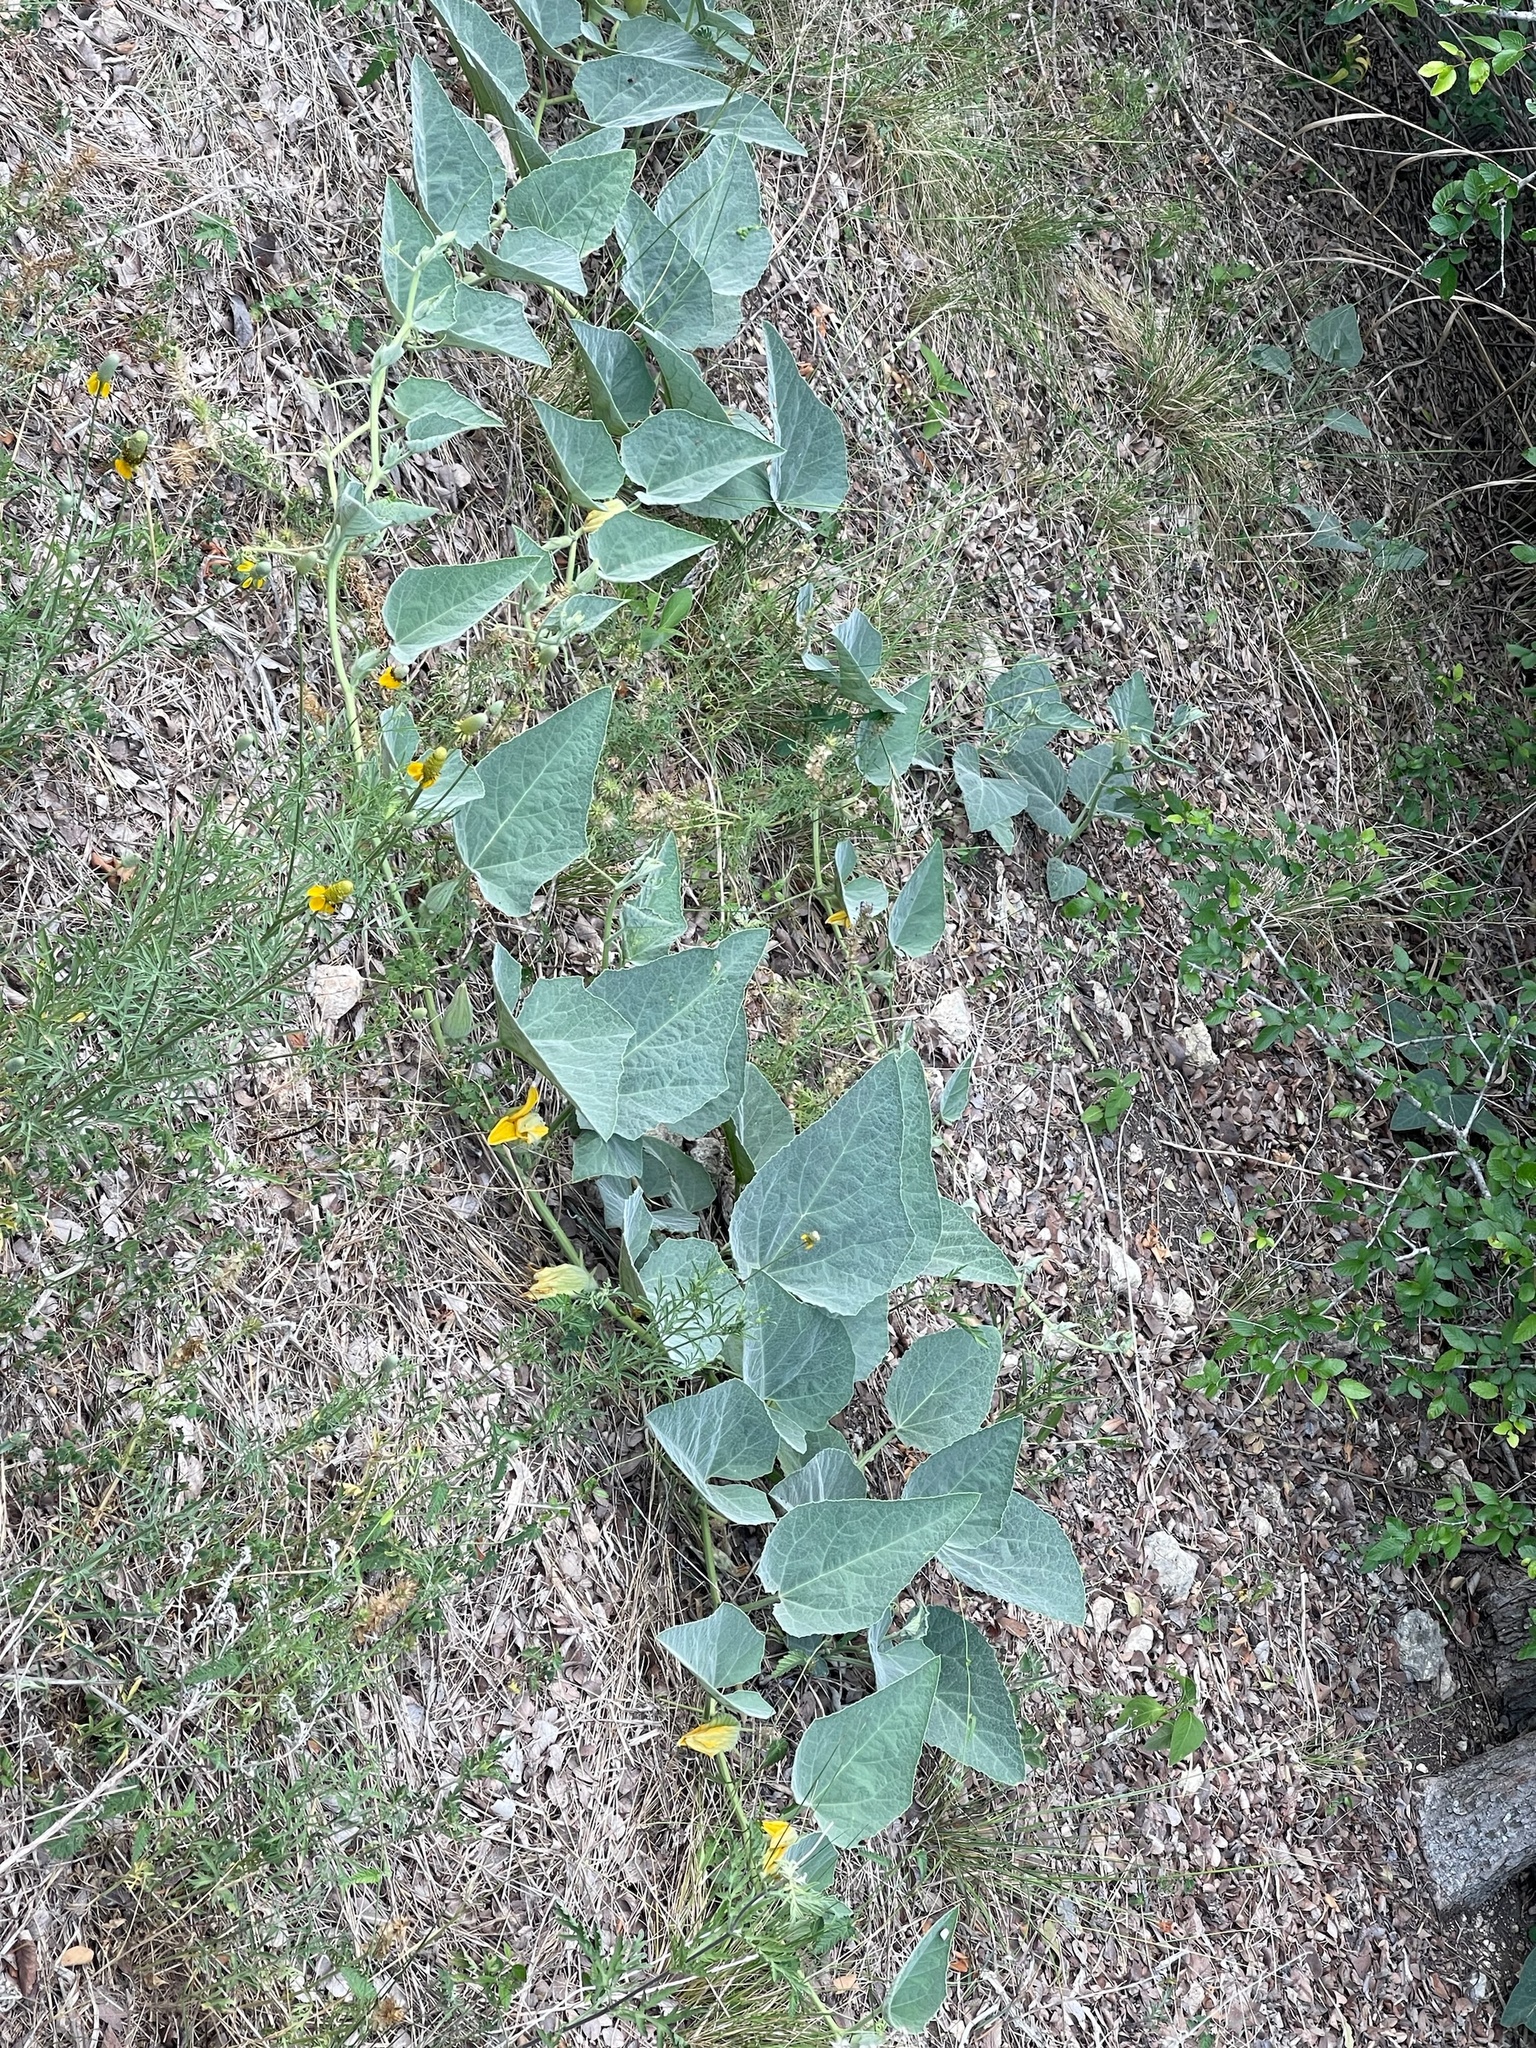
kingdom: Plantae
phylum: Tracheophyta
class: Magnoliopsida
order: Cucurbitales
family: Cucurbitaceae
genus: Cucurbita
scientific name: Cucurbita foetidissima
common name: Buffalo gourd
